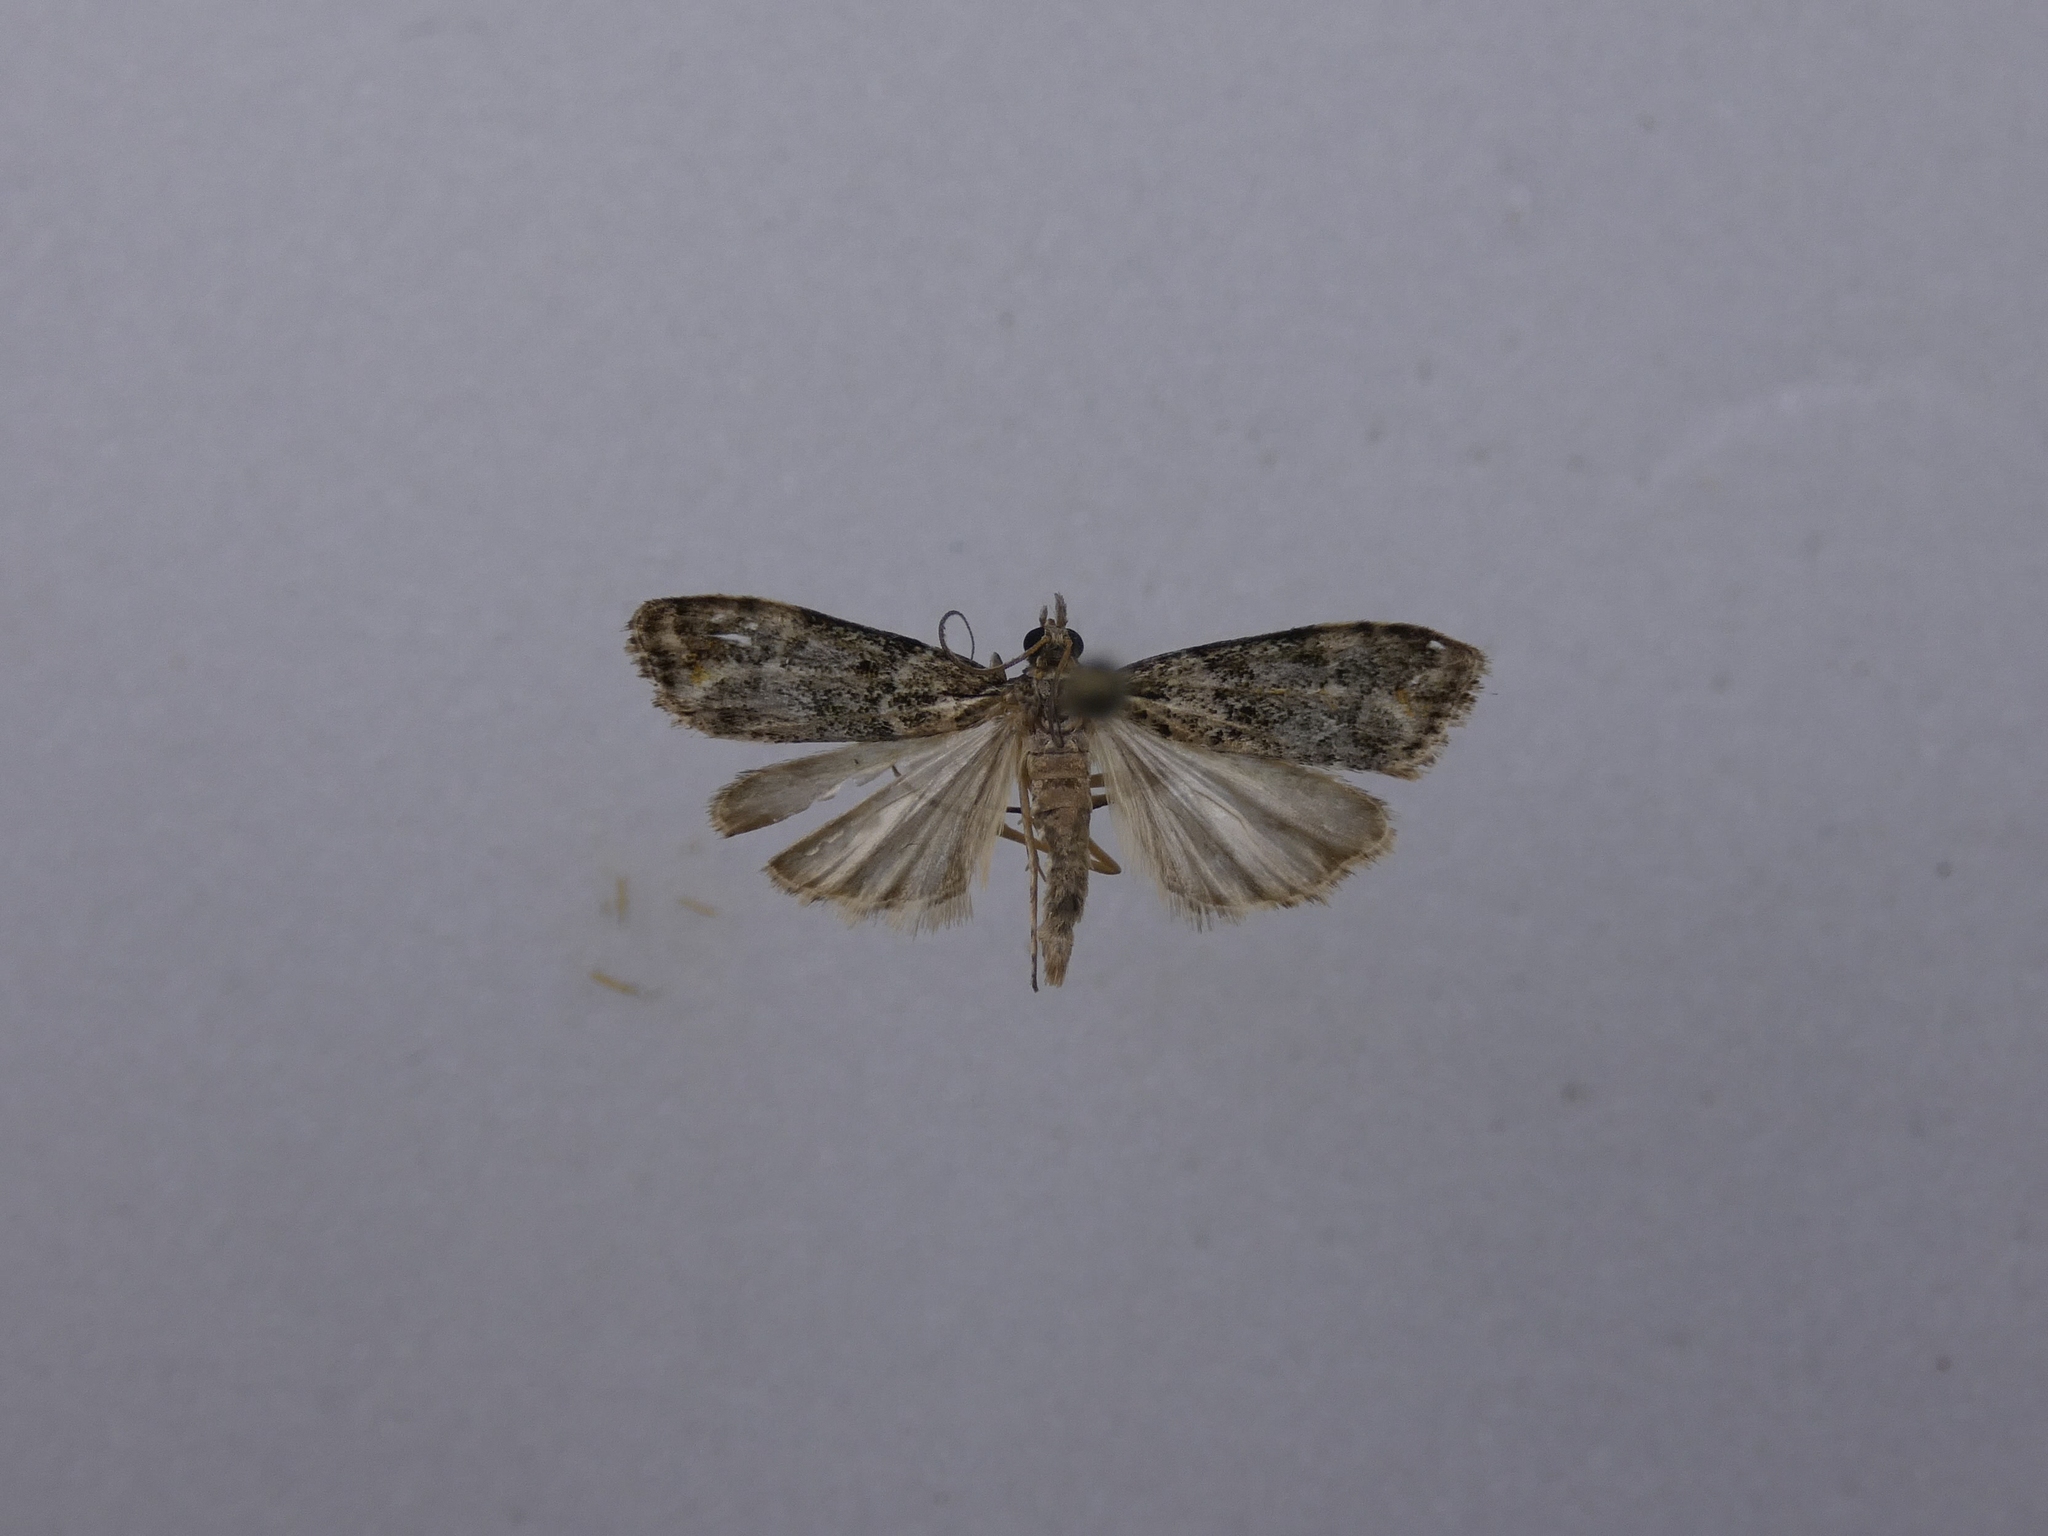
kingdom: Animalia
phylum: Arthropoda
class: Insecta
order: Lepidoptera
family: Crambidae
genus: Eudonia
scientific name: Eudonia minualis
